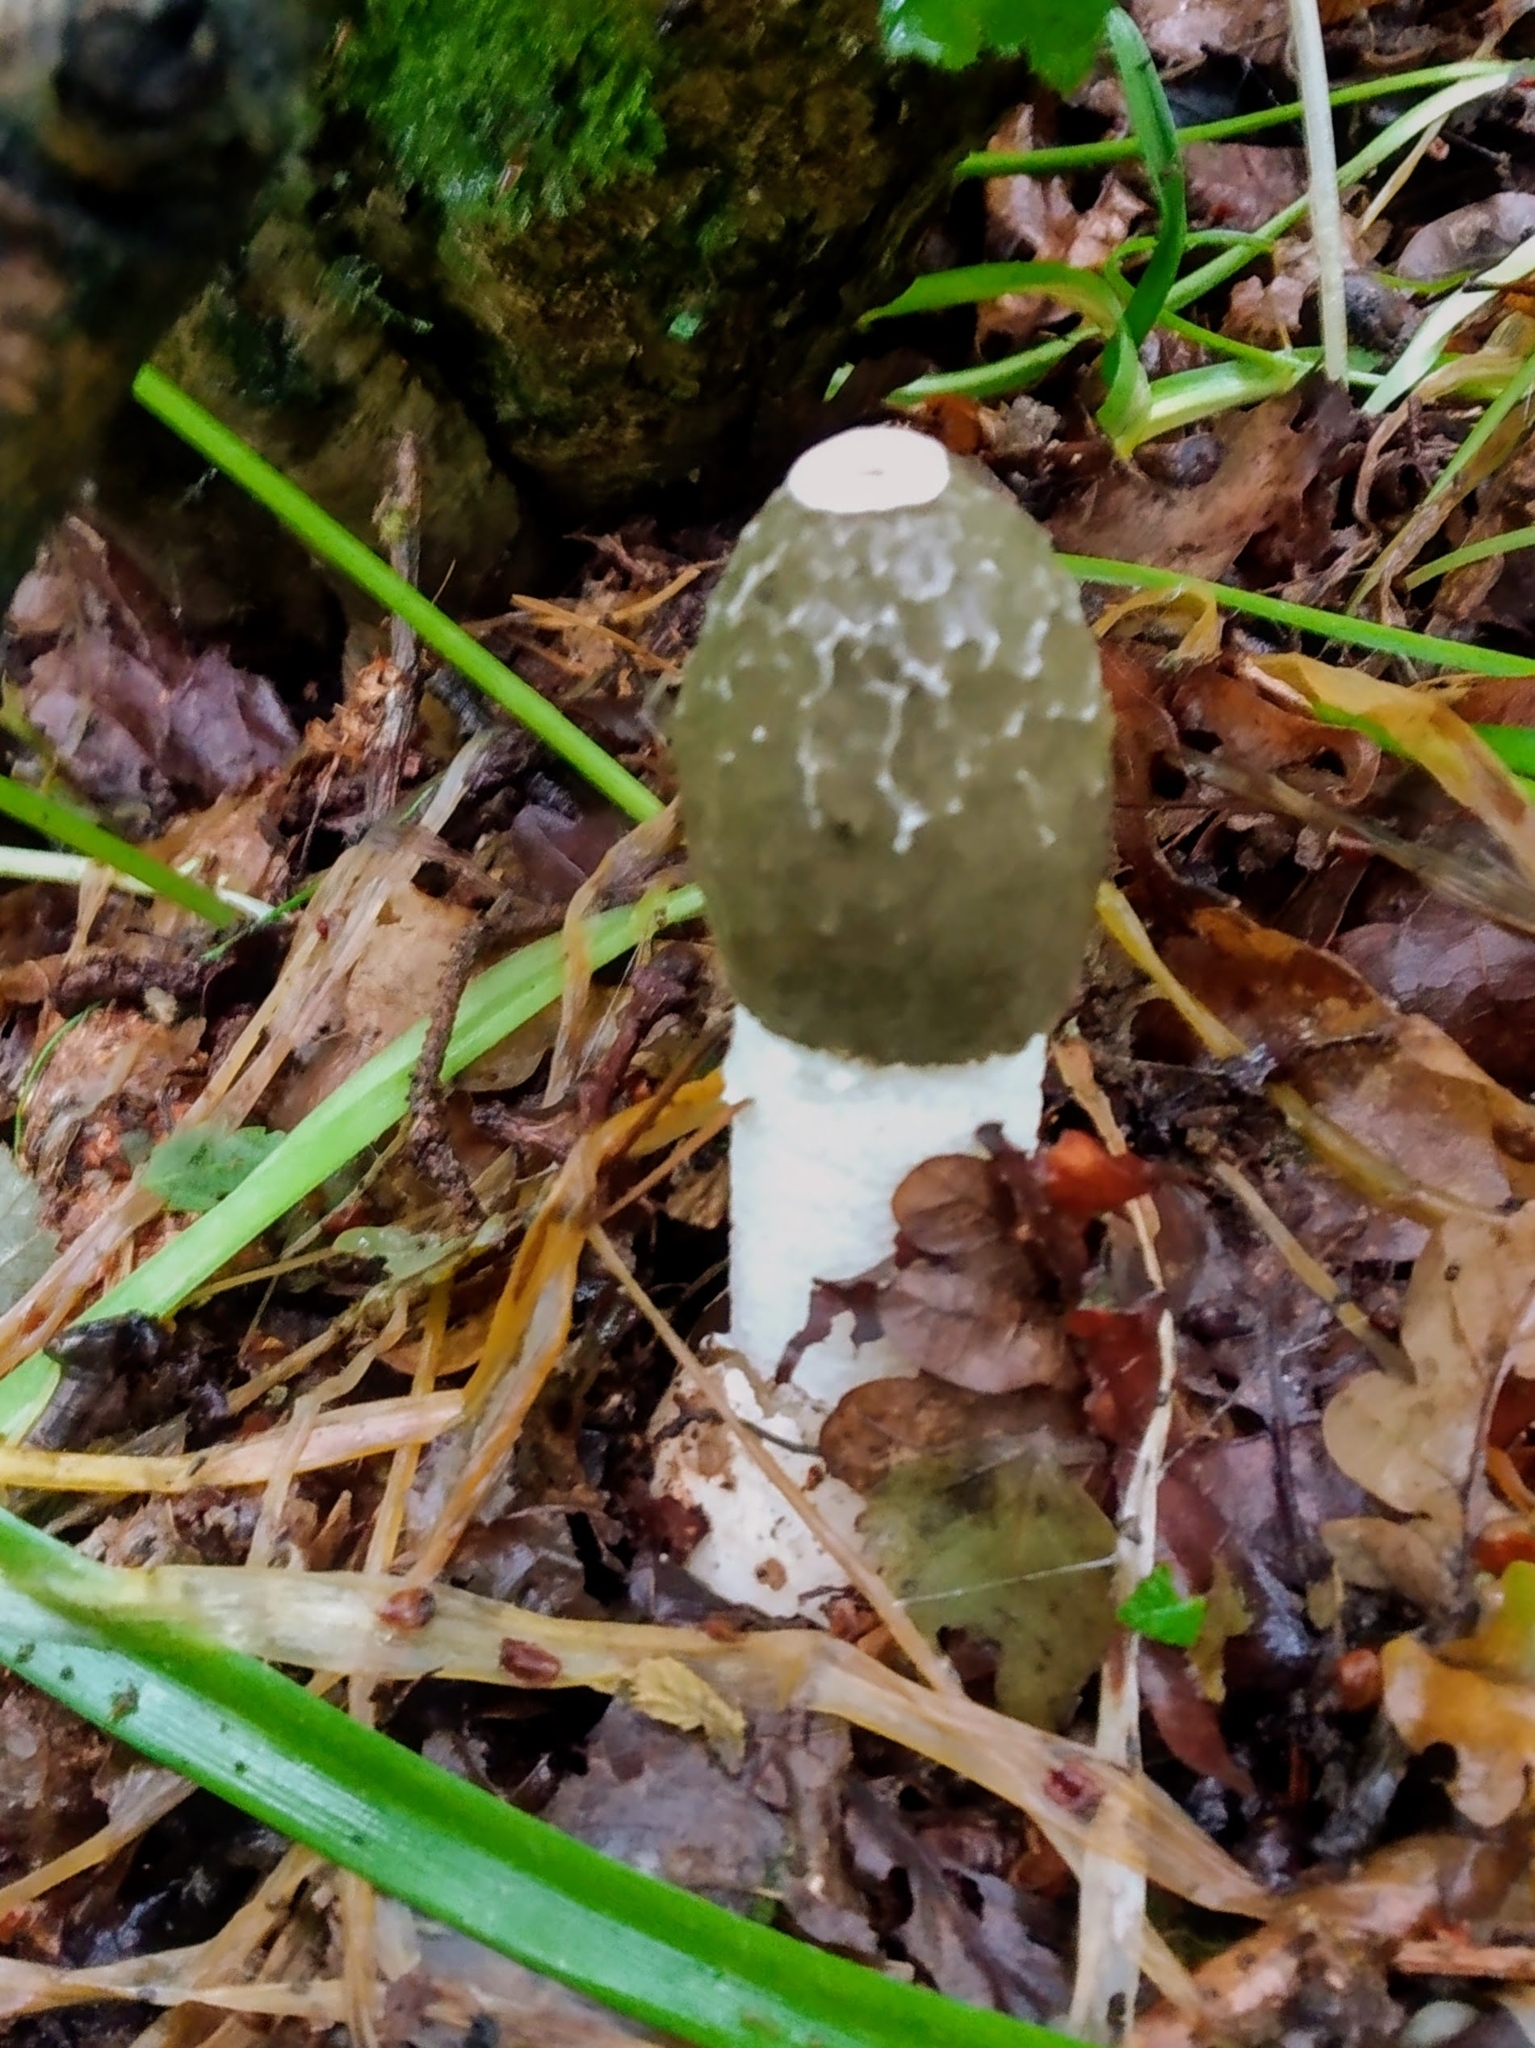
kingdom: Fungi
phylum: Basidiomycota
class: Agaricomycetes
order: Phallales
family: Phallaceae
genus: Phallus
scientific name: Phallus impudicus
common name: Common stinkhorn
